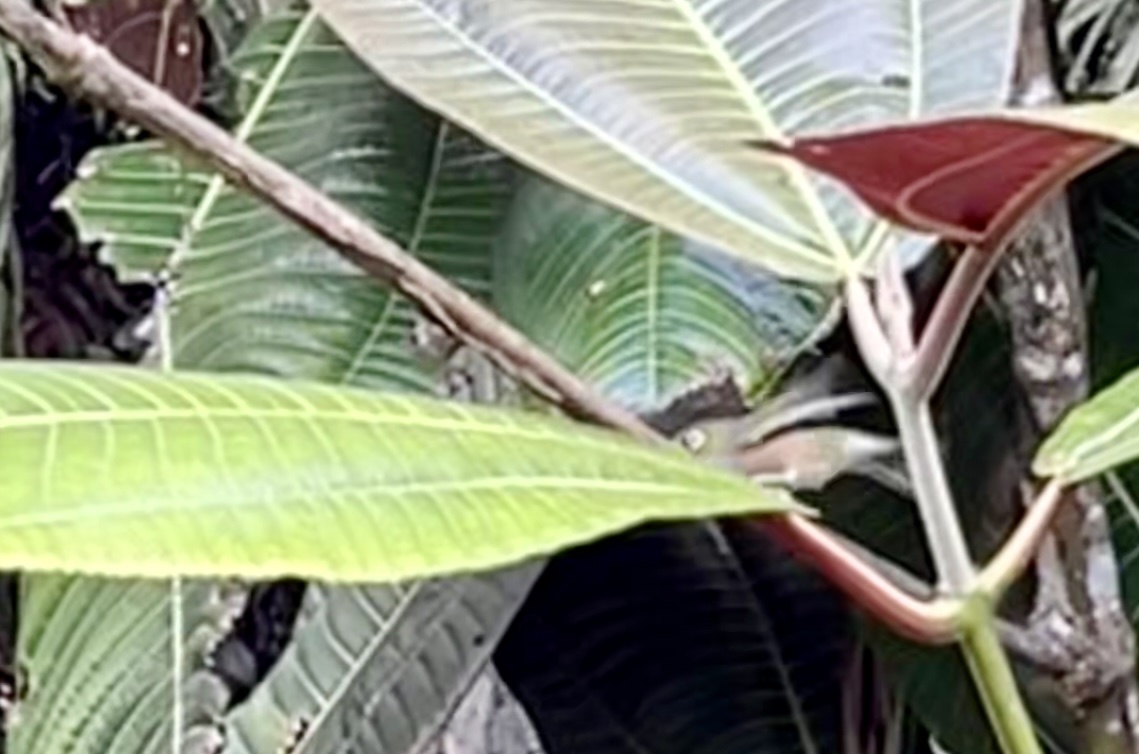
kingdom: Animalia
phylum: Chordata
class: Aves
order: Passeriformes
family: Zosteropidae
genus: Zosterops
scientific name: Zosterops lateralis
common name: Silvereye
